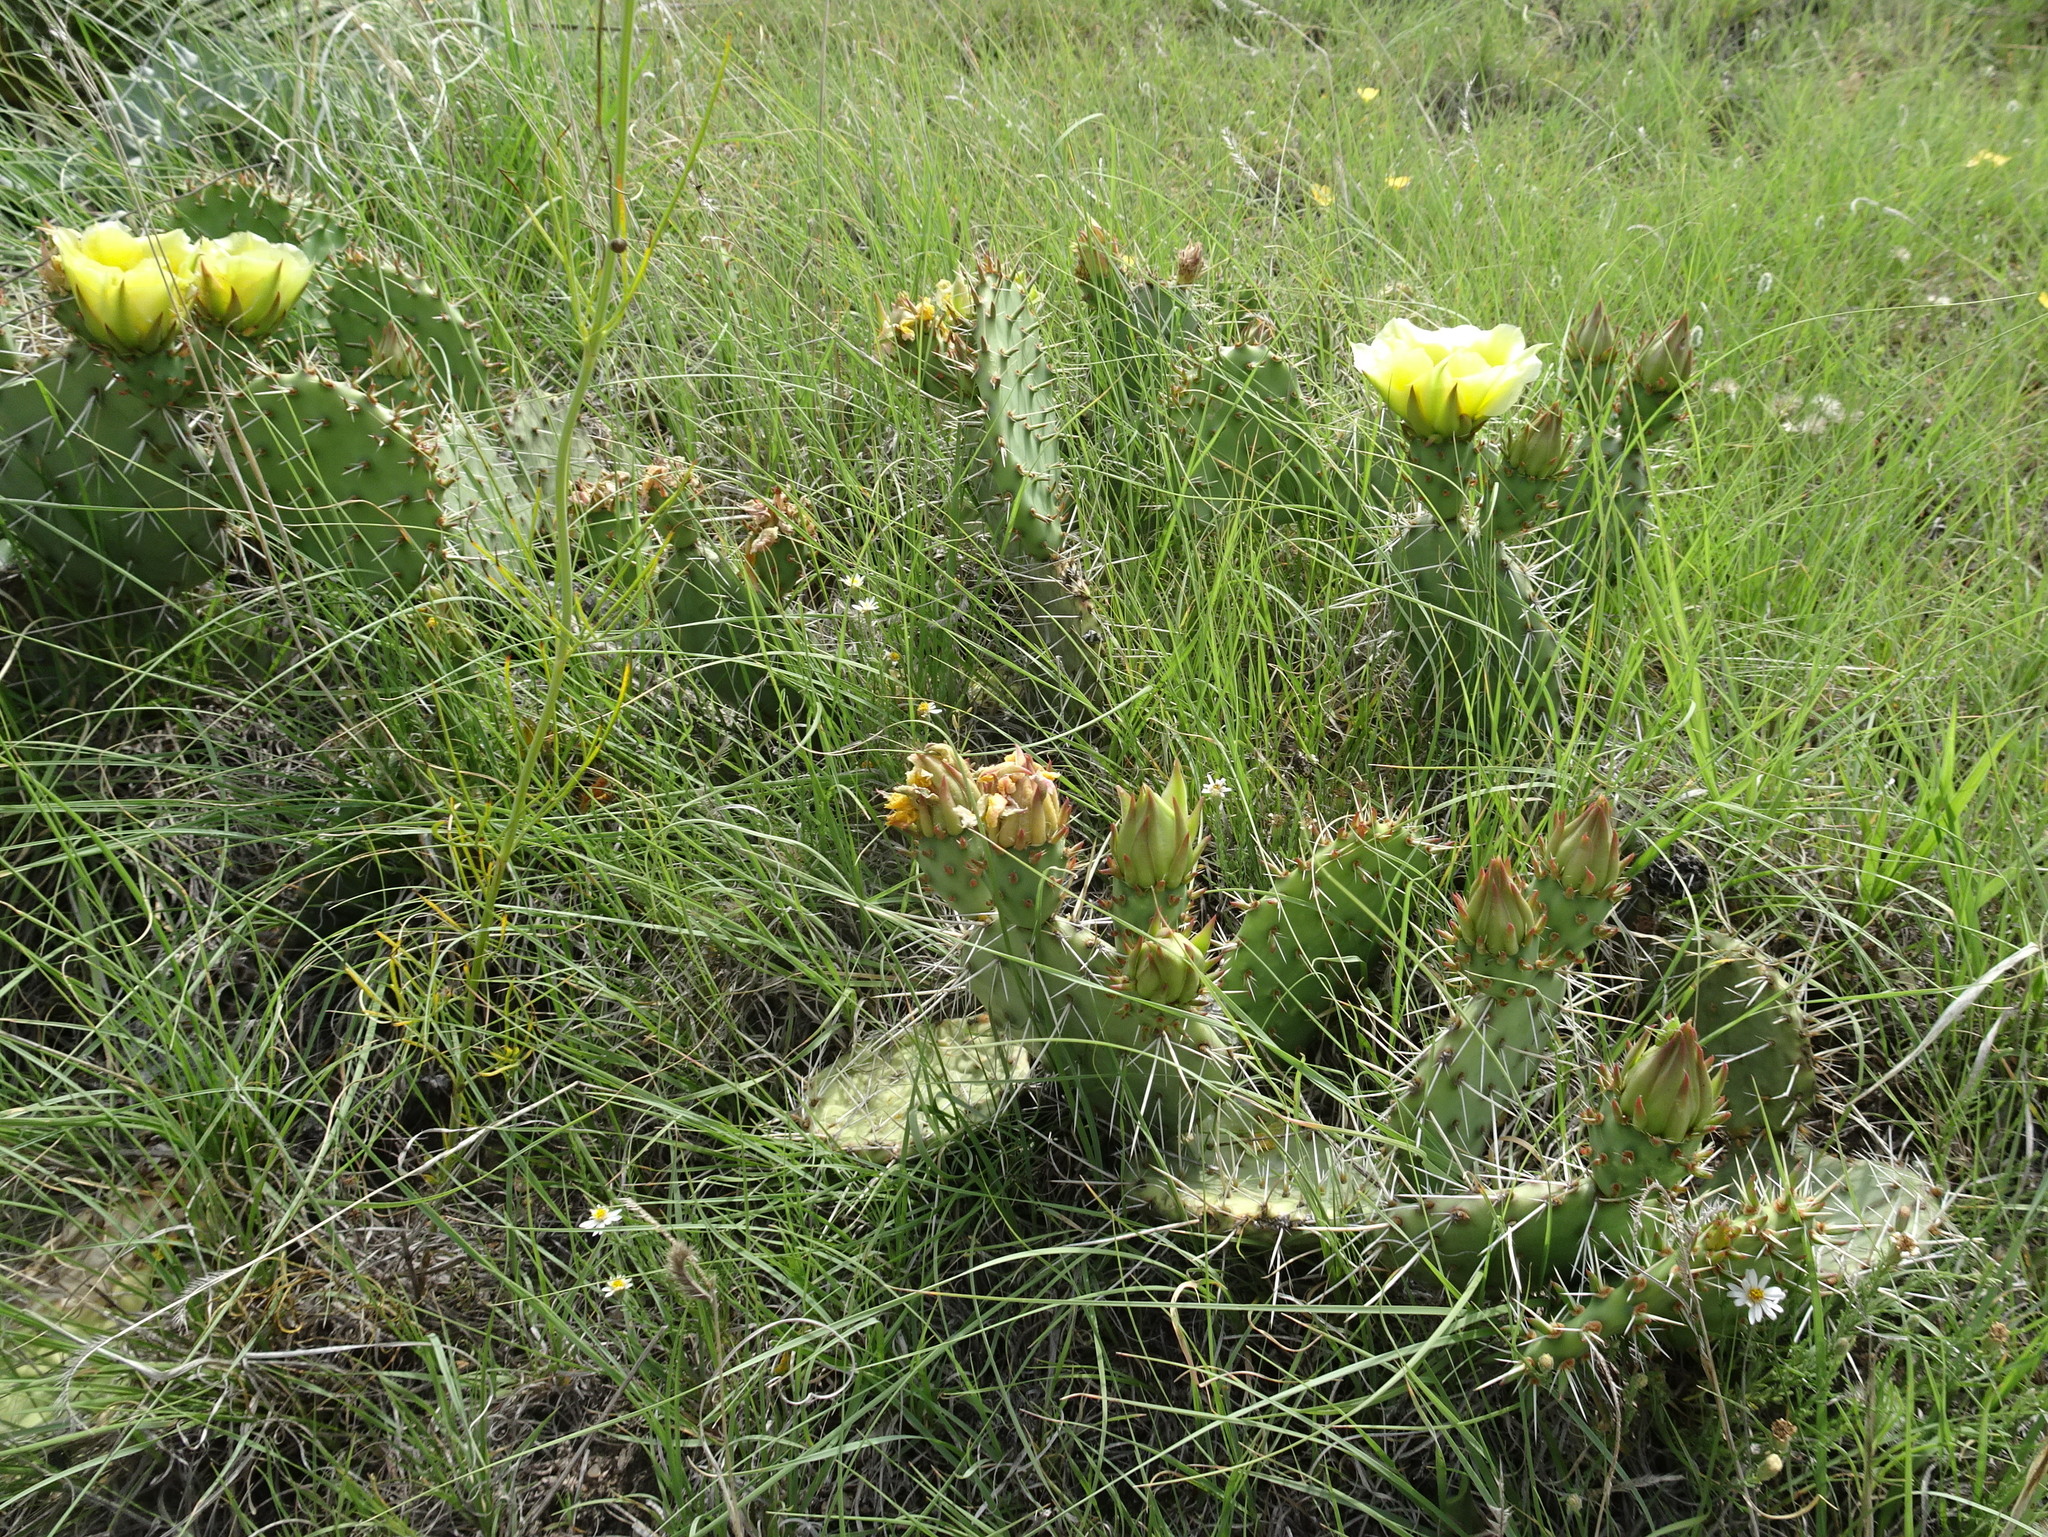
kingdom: Plantae
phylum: Tracheophyta
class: Magnoliopsida
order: Caryophyllales
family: Cactaceae
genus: Opuntia
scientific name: Opuntia cymochila
